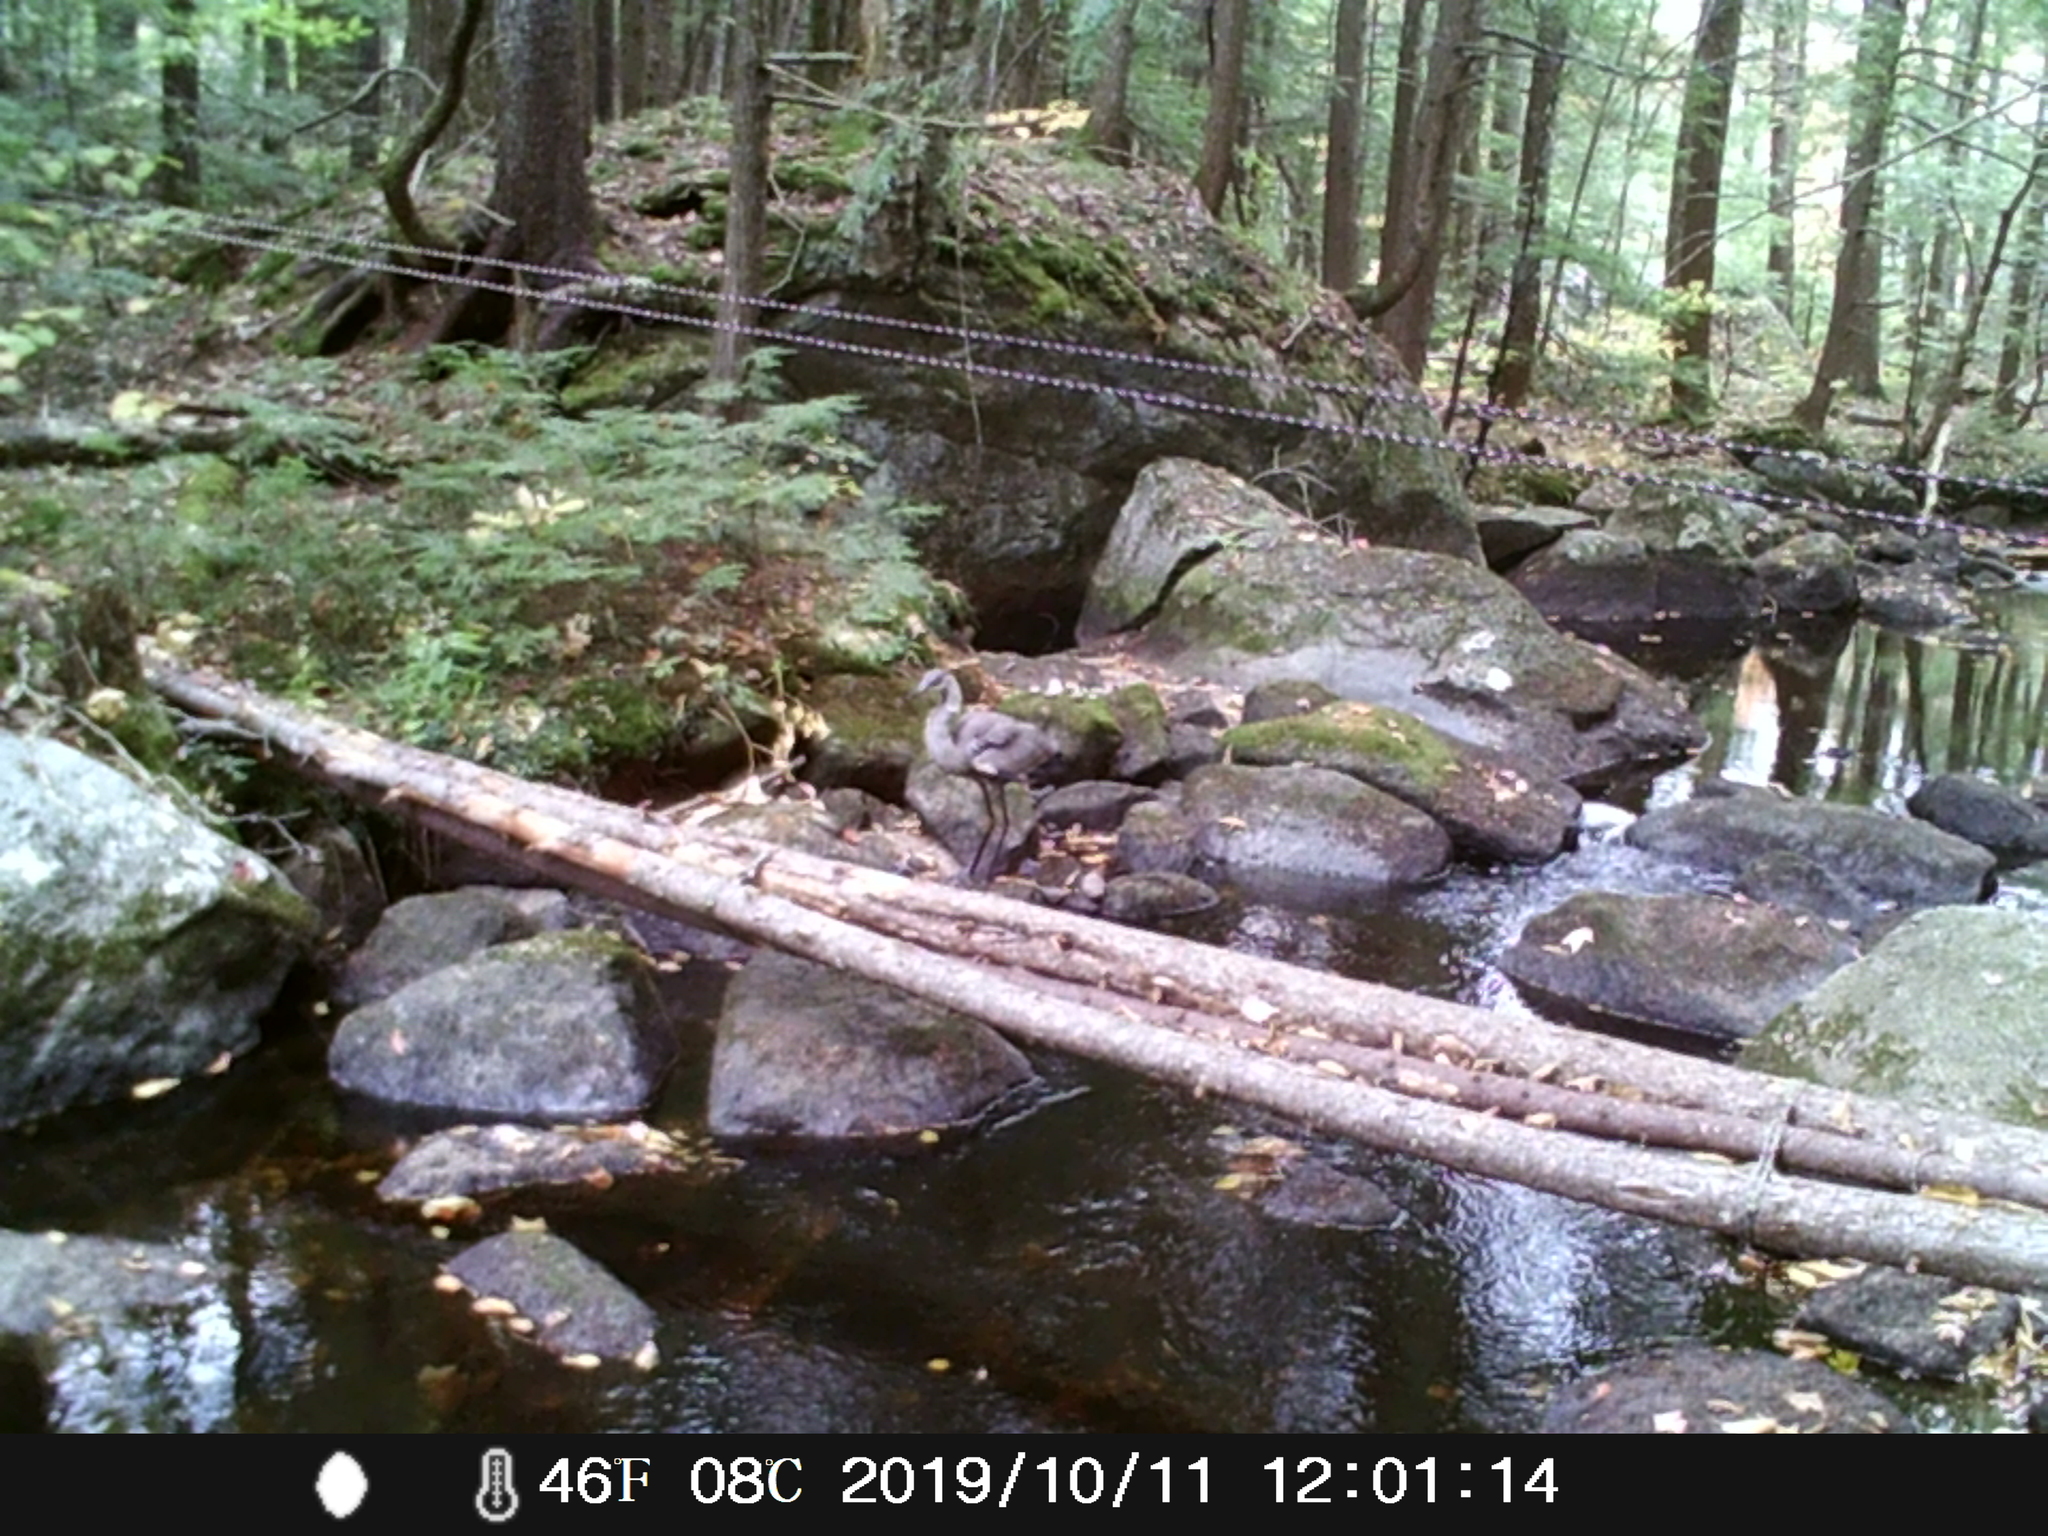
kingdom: Animalia
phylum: Chordata
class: Aves
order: Pelecaniformes
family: Ardeidae
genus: Ardea
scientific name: Ardea herodias
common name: Great blue heron
